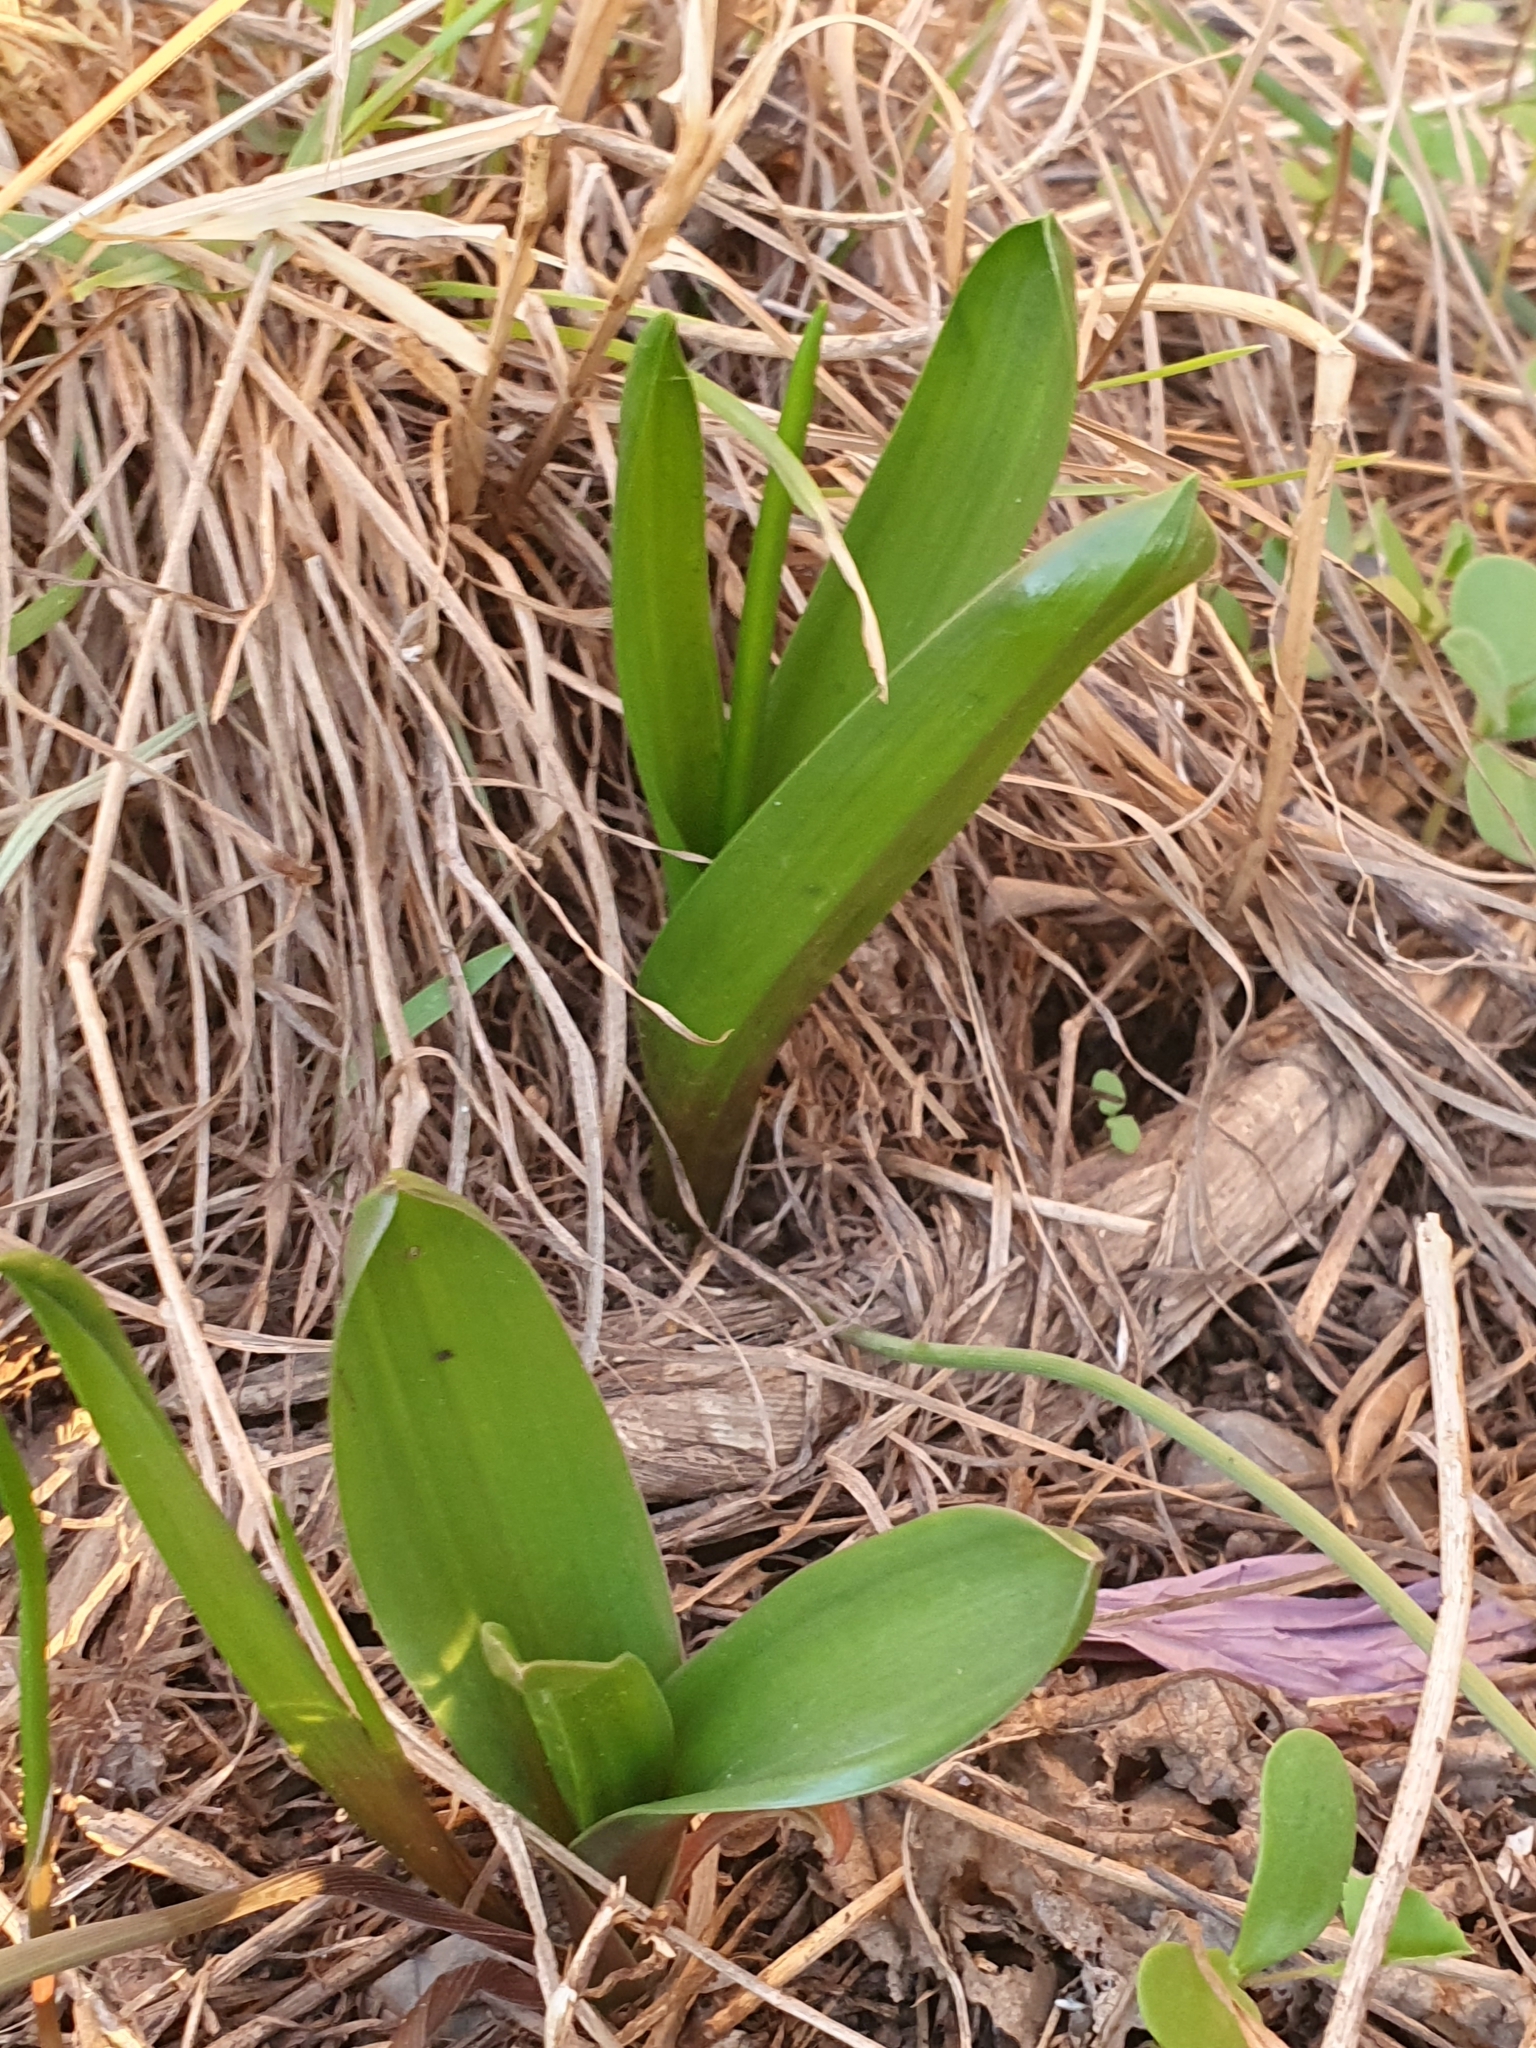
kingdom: Plantae
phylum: Tracheophyta
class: Liliopsida
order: Asparagales
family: Asparagaceae
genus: Drimia
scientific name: Drimia numidica
